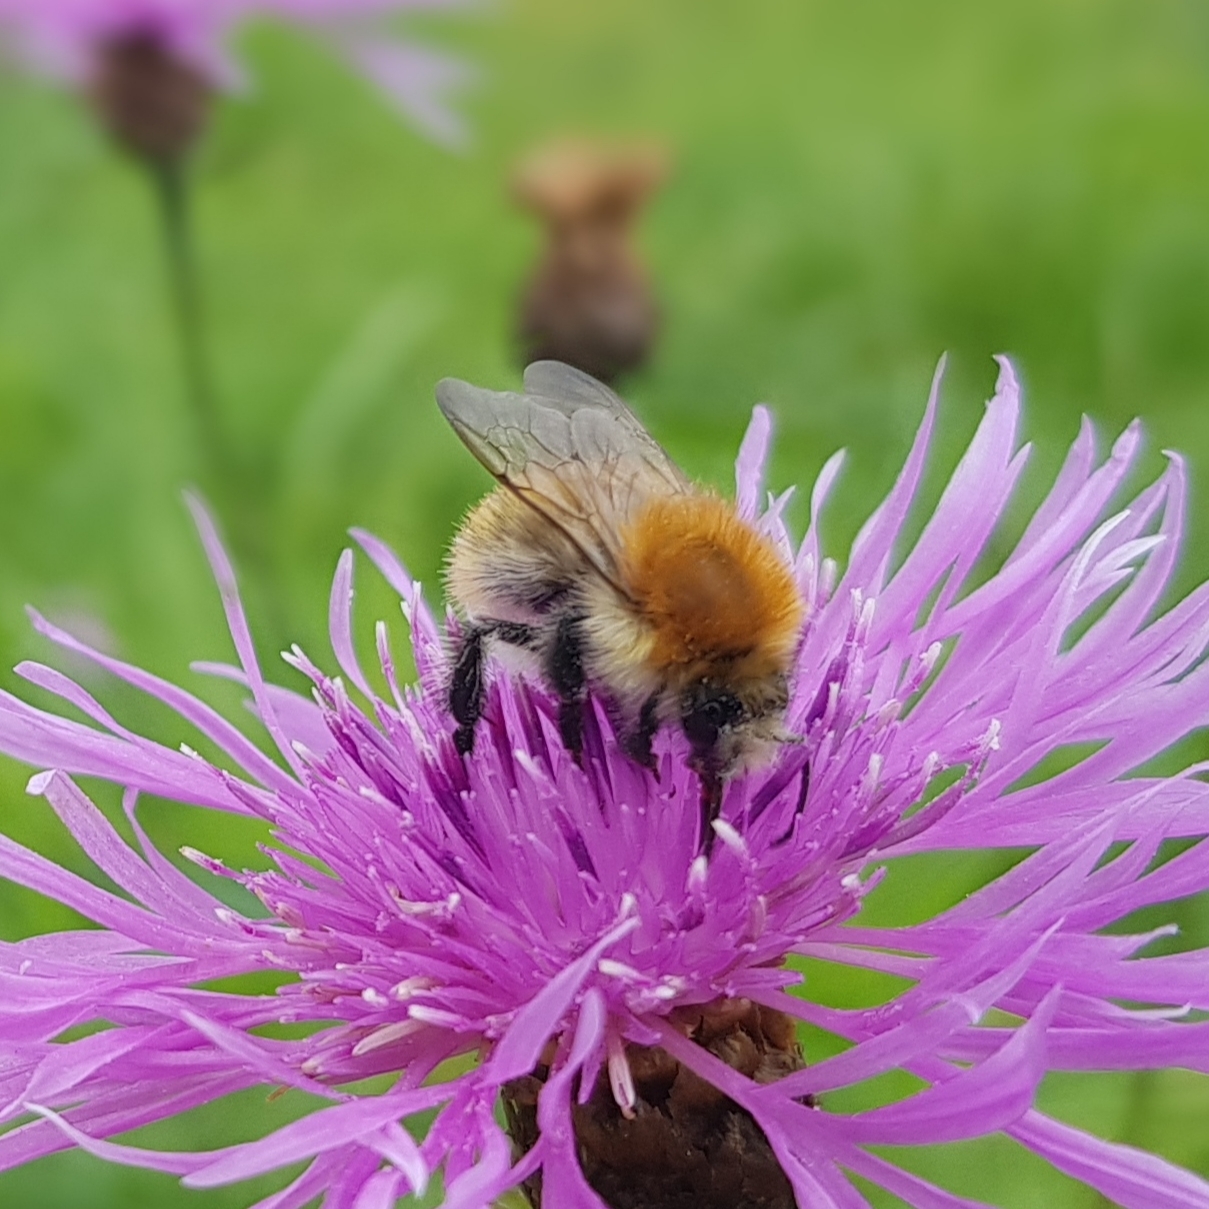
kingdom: Animalia
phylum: Arthropoda
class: Insecta
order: Hymenoptera
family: Apidae
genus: Bombus
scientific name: Bombus pascuorum
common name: Common carder bee
